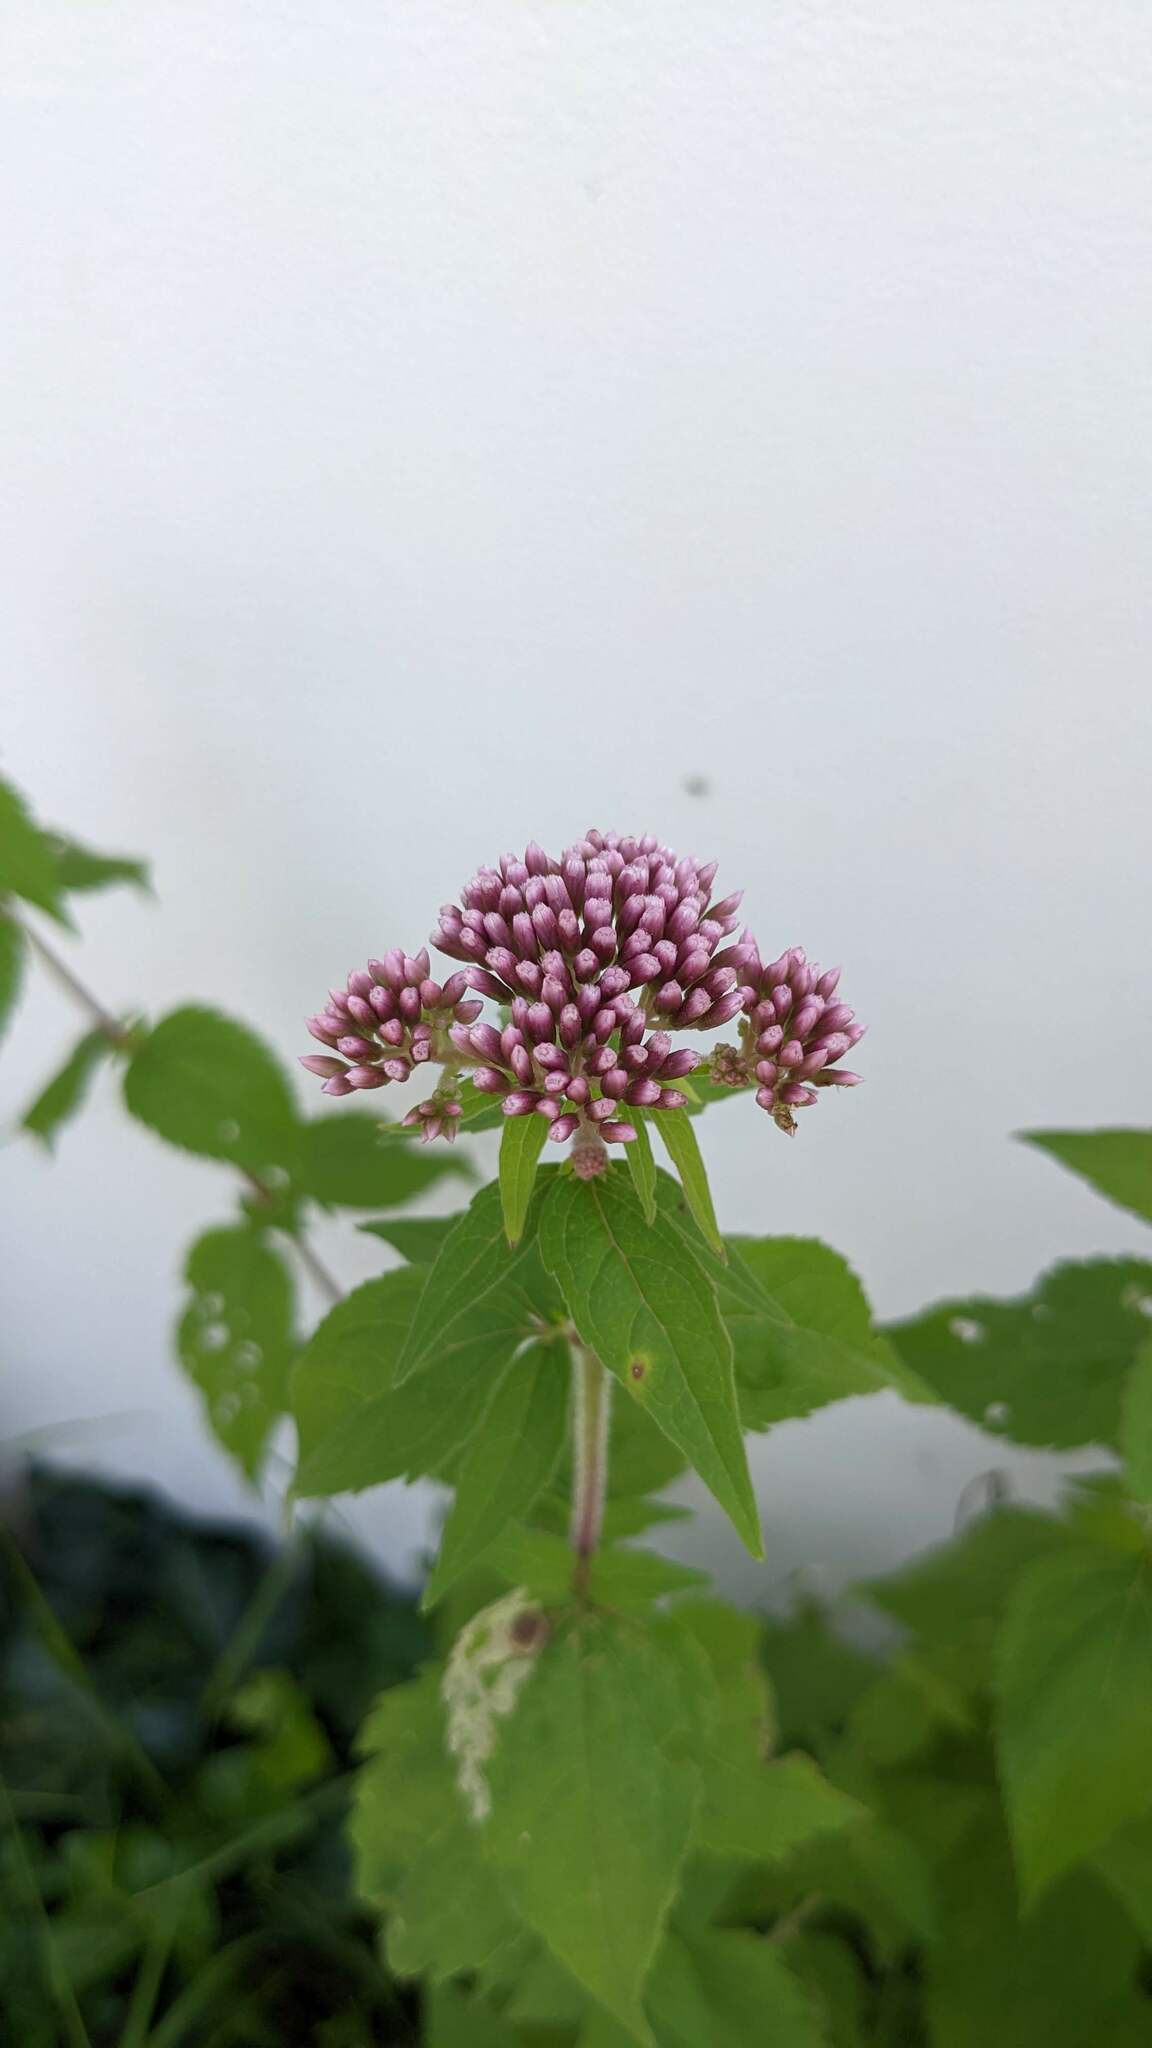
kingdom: Plantae
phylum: Tracheophyta
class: Magnoliopsida
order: Asterales
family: Asteraceae
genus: Eupatorium
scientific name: Eupatorium cannabinum
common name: Hemp-agrimony
